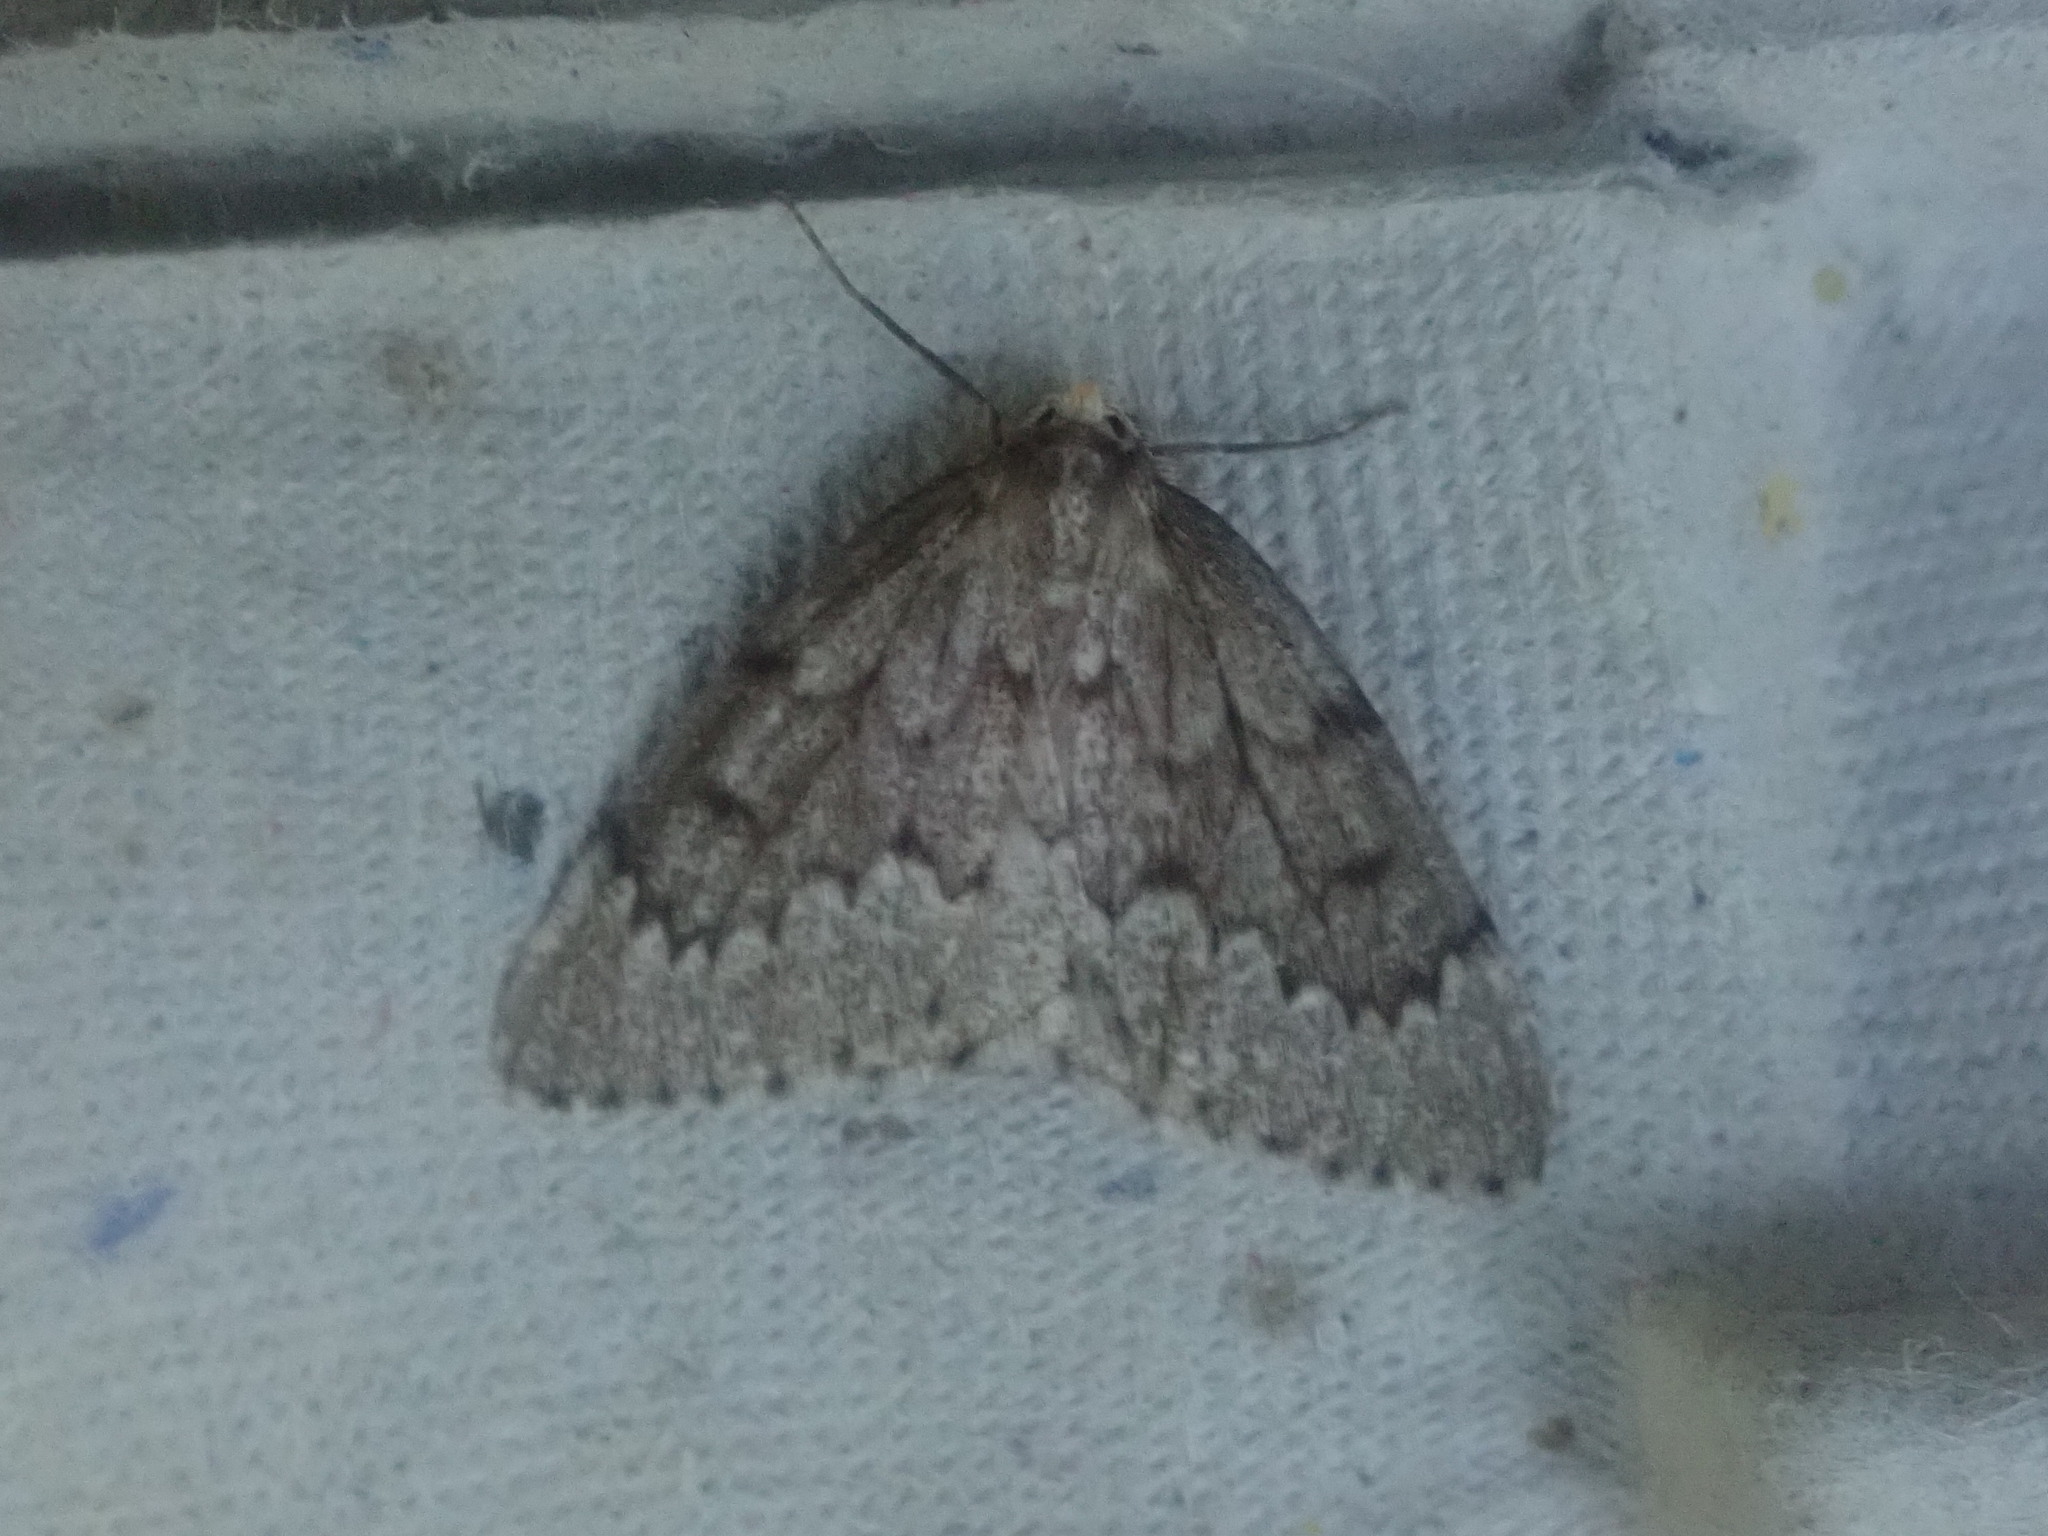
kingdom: Animalia
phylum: Arthropoda
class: Insecta
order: Lepidoptera
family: Geometridae
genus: Nepytia
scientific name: Nepytia canosaria
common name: False hemlock looper
